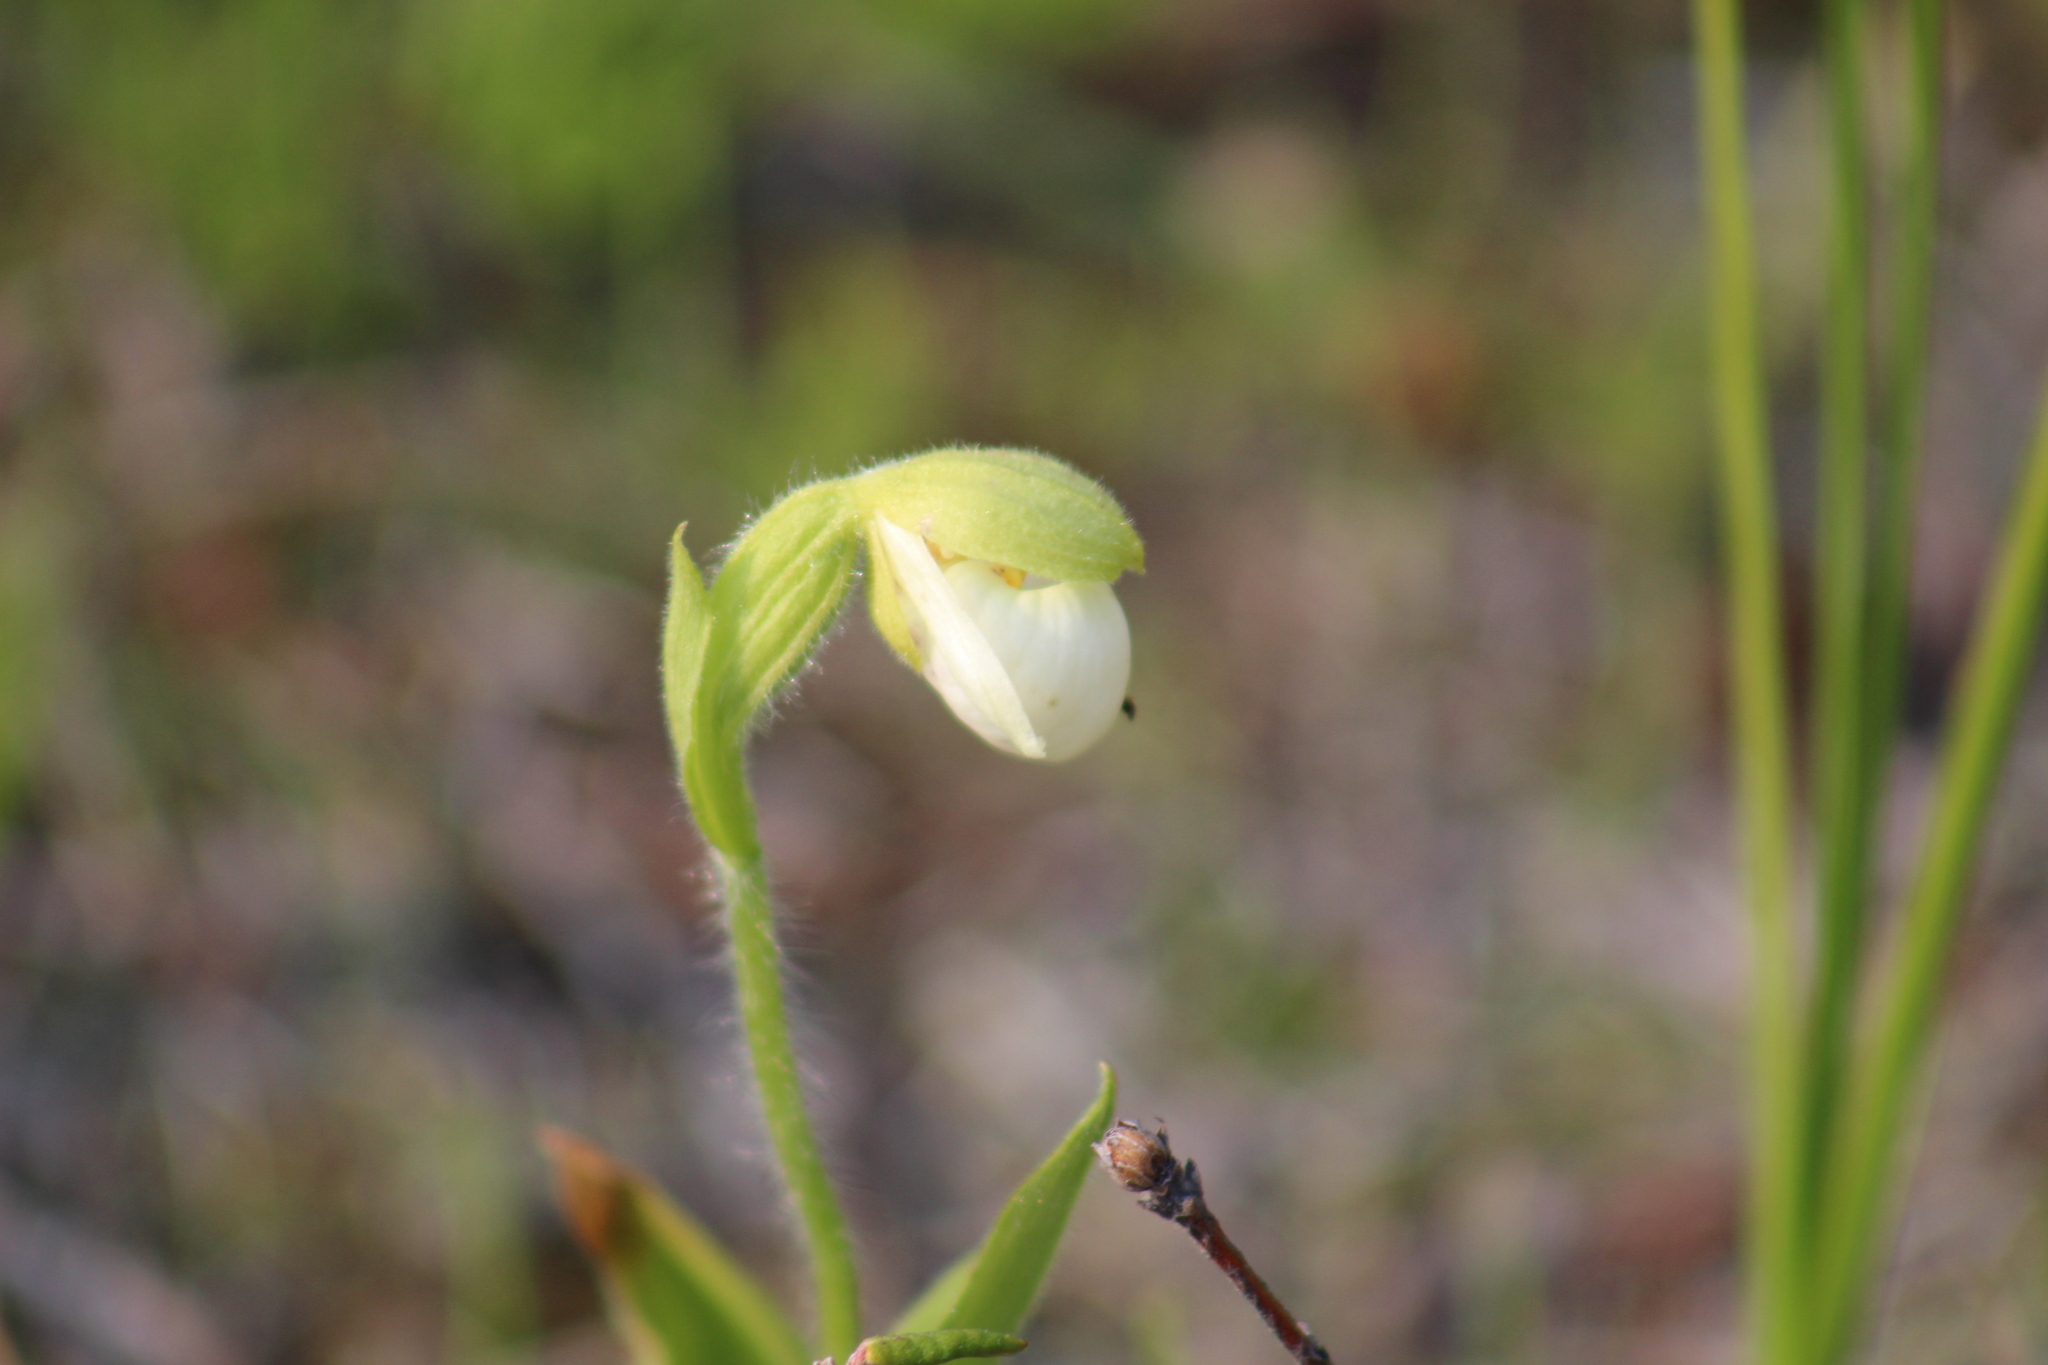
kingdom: Plantae
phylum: Tracheophyta
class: Liliopsida
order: Asparagales
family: Orchidaceae
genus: Cypripedium
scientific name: Cypripedium passerinum
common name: Sparrow's-egg lady's-slipper
